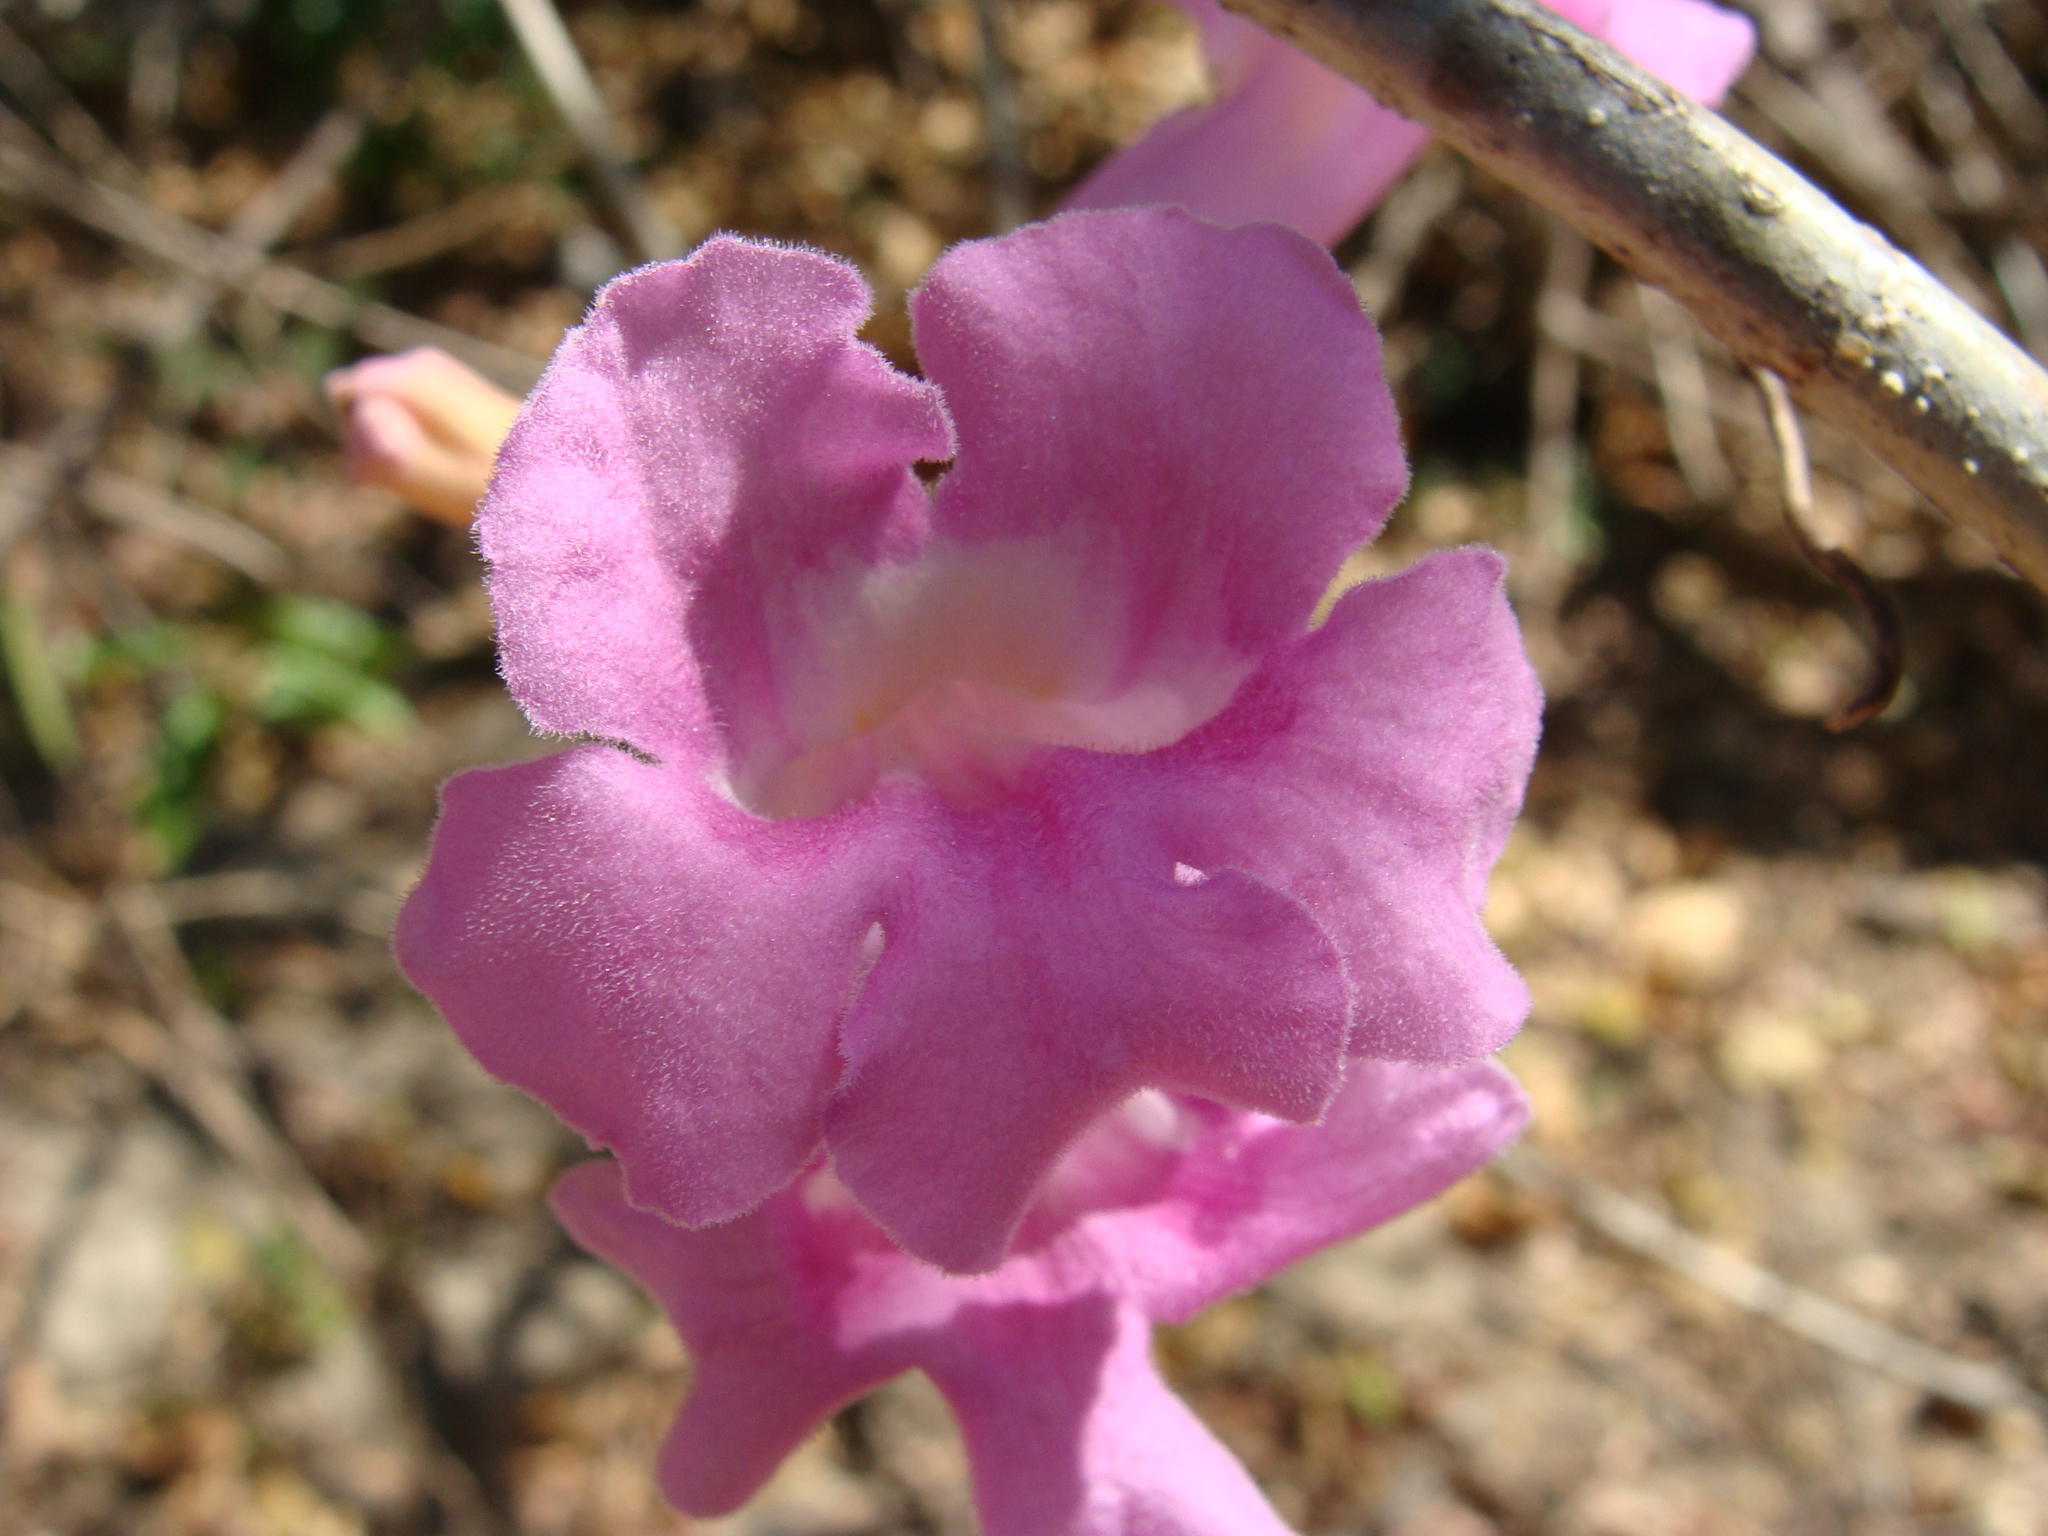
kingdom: Plantae
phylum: Tracheophyta
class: Magnoliopsida
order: Lamiales
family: Bignoniaceae
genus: Fridericia
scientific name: Fridericia chica
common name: Cricketvine
